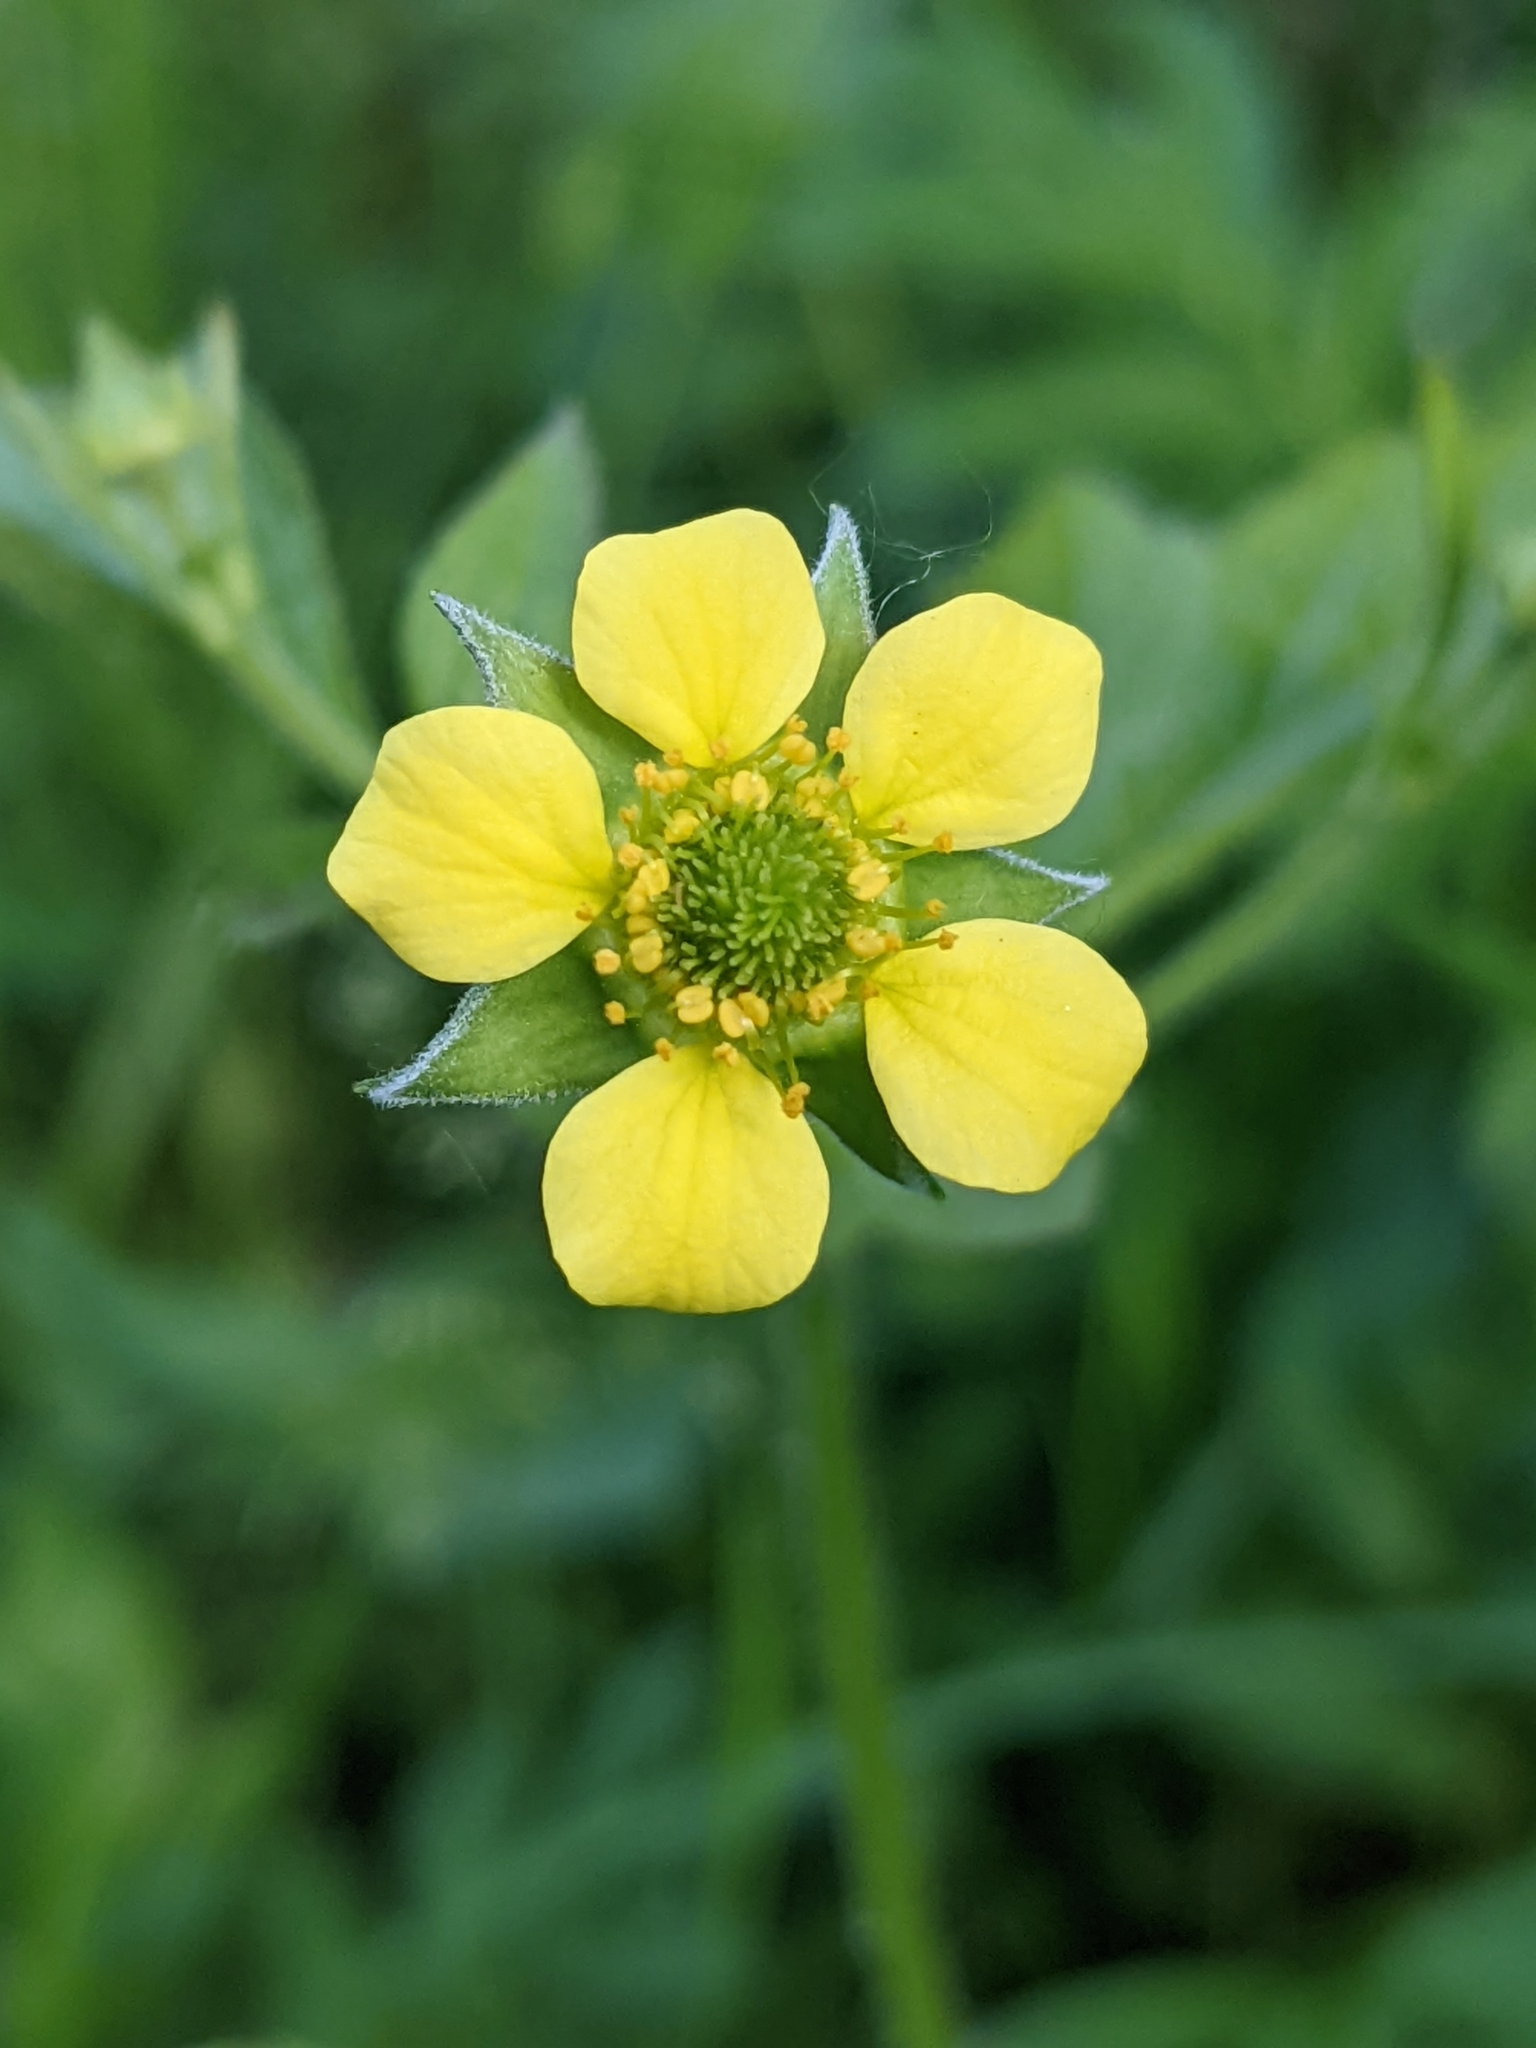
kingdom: Plantae
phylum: Tracheophyta
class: Magnoliopsida
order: Rosales
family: Rosaceae
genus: Geum
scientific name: Geum urbanum
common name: Wood avens
